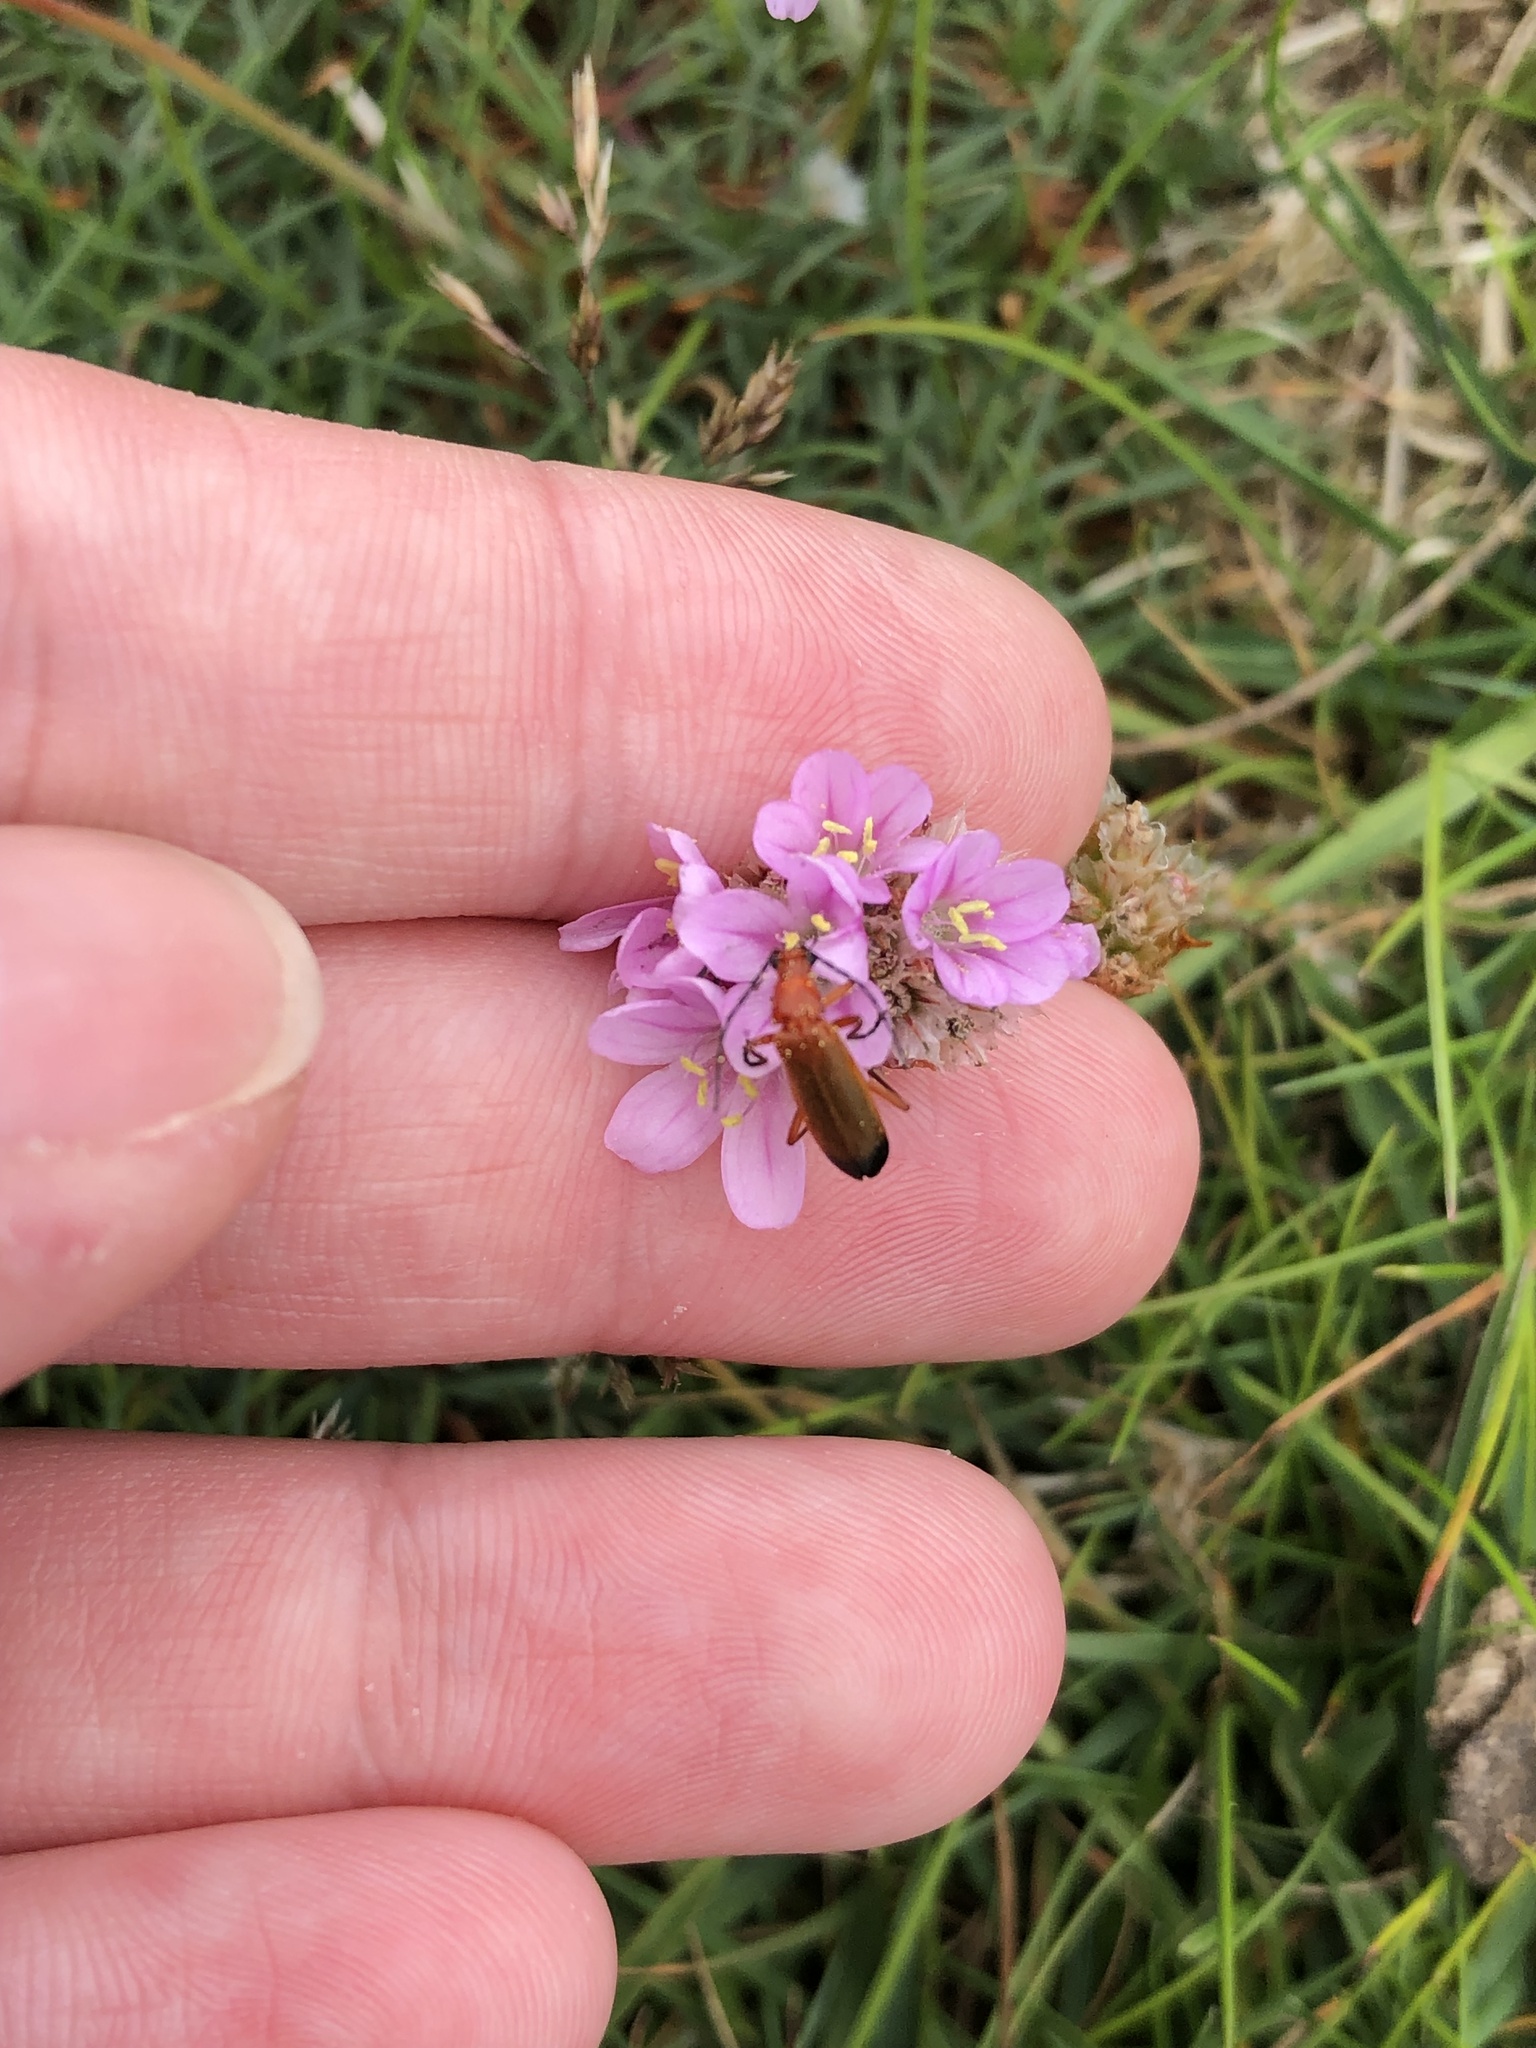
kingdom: Animalia
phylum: Arthropoda
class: Insecta
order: Coleoptera
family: Cantharidae
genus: Rhagonycha
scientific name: Rhagonycha fulva
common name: Common red soldier beetle
